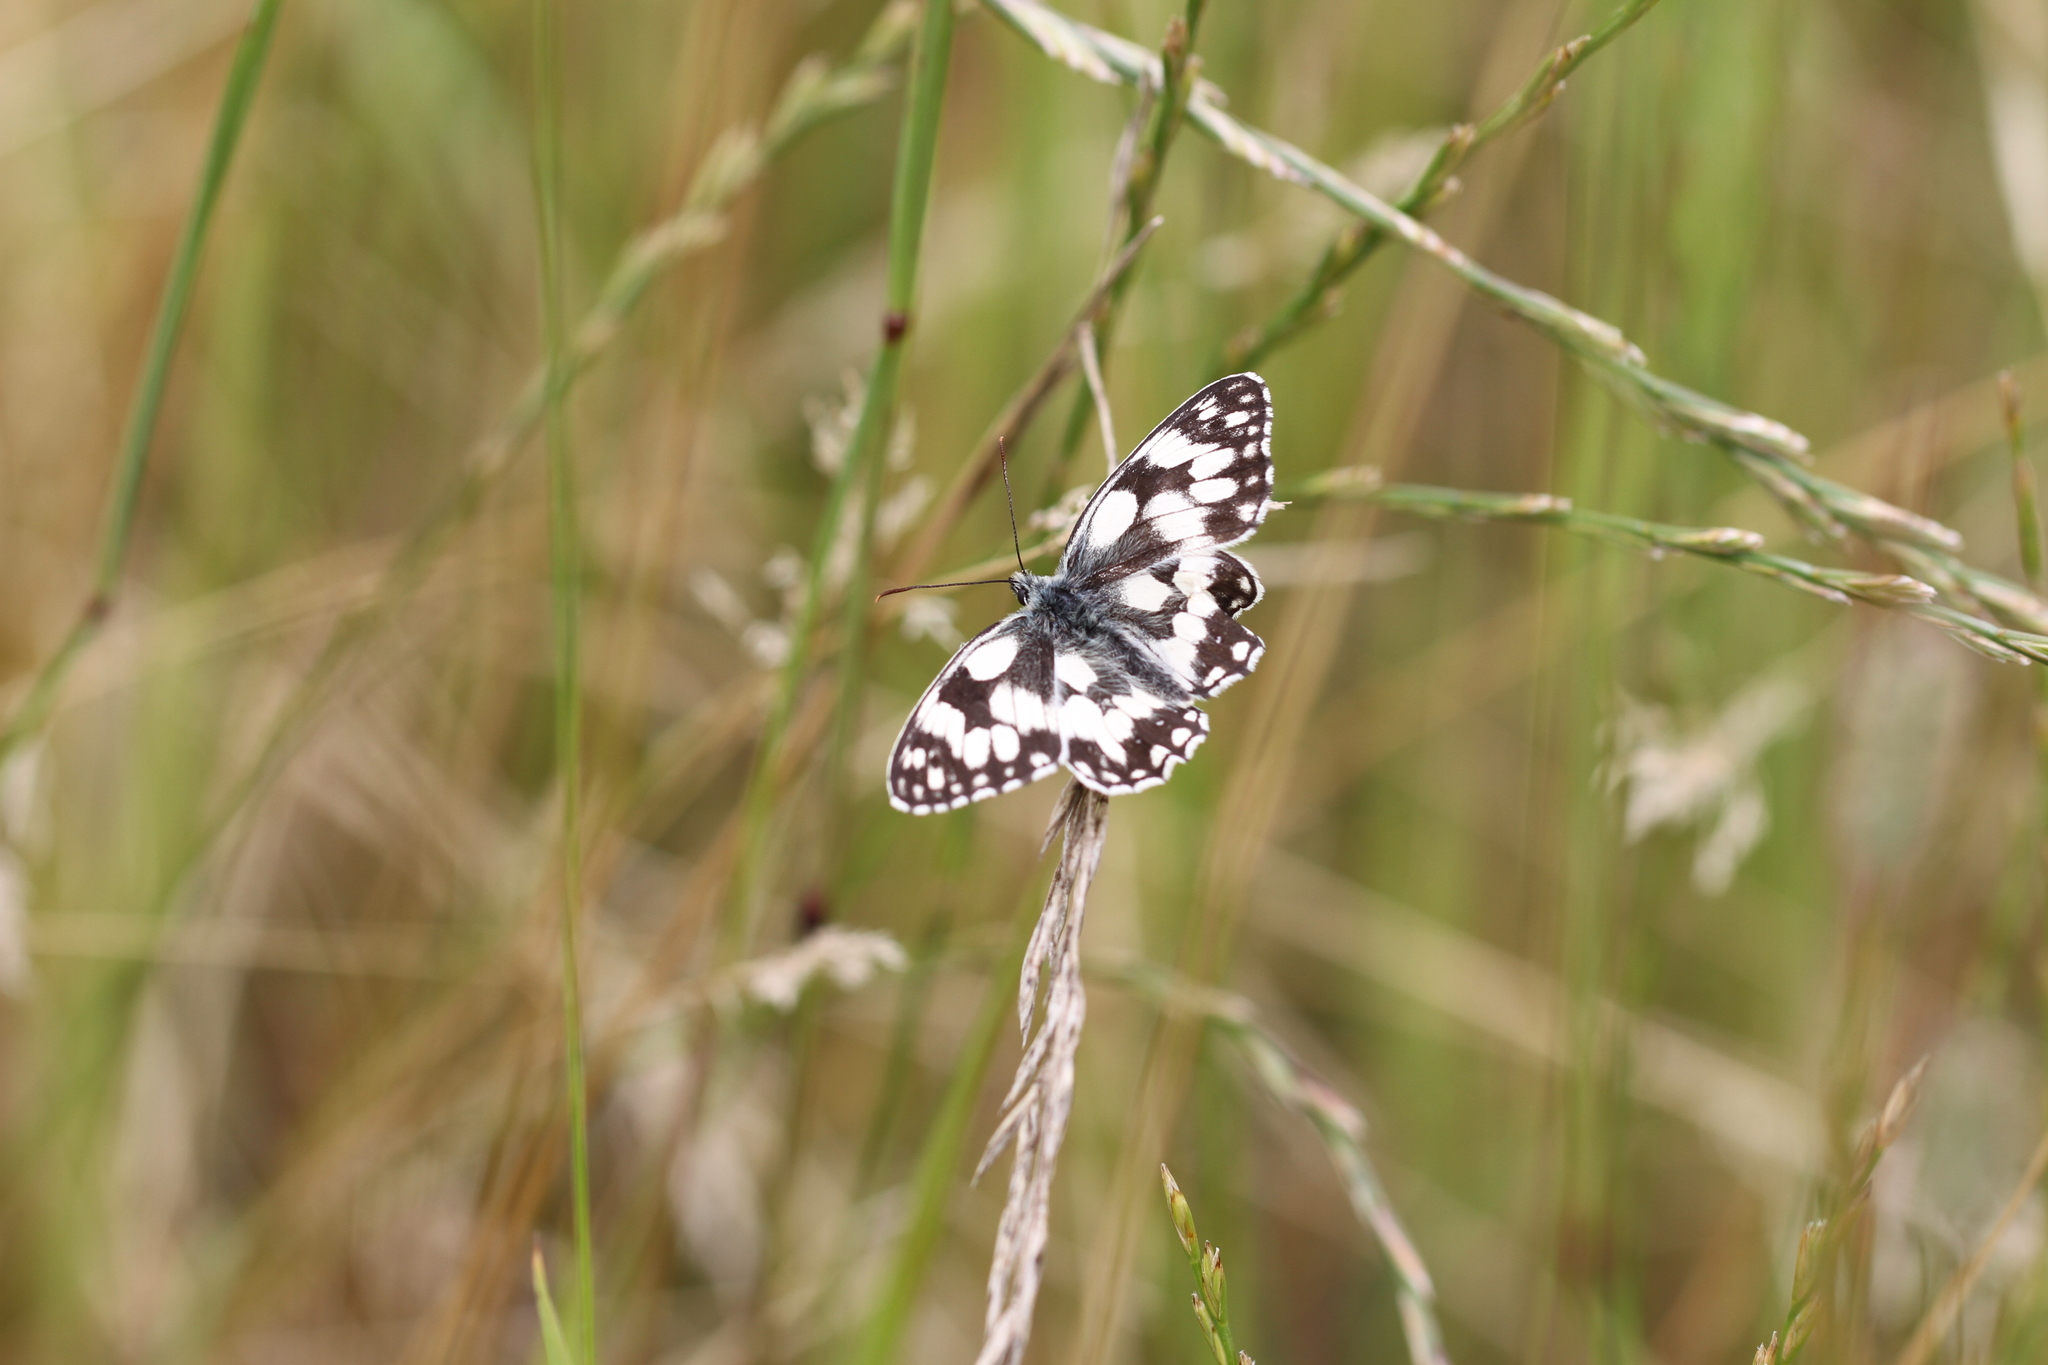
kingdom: Animalia
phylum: Arthropoda
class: Insecta
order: Lepidoptera
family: Nymphalidae
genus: Melanargia
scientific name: Melanargia galathea
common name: Marbled white
